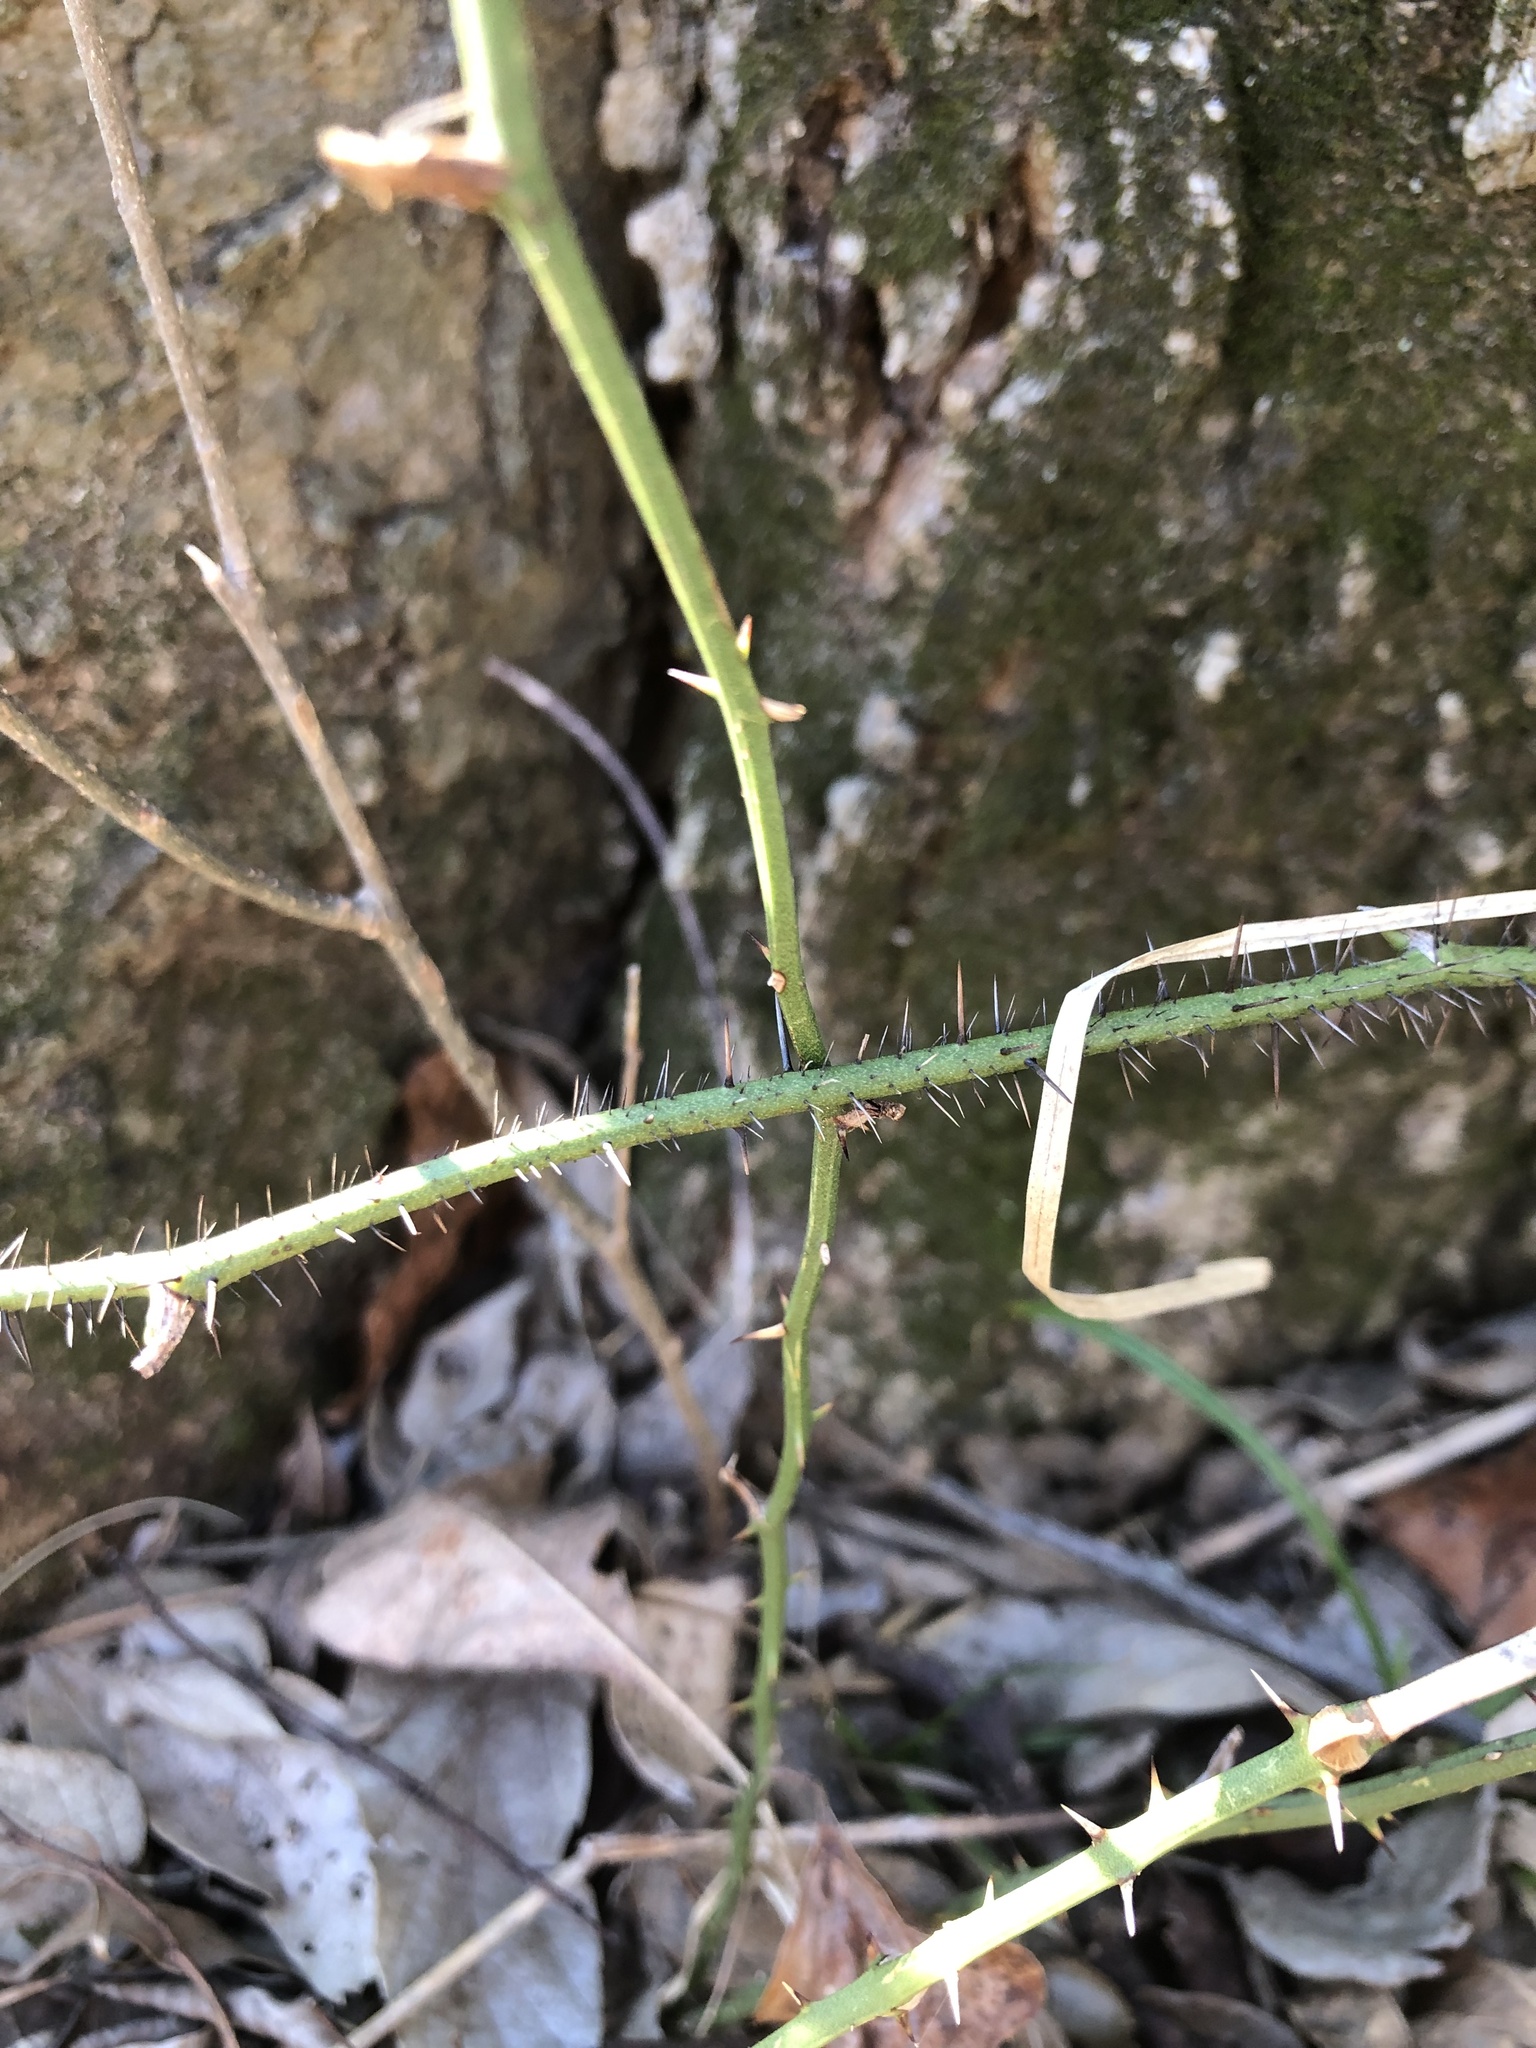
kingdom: Plantae
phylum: Tracheophyta
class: Liliopsida
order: Liliales
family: Smilacaceae
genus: Smilax
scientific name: Smilax tamnoides
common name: Hellfetter
